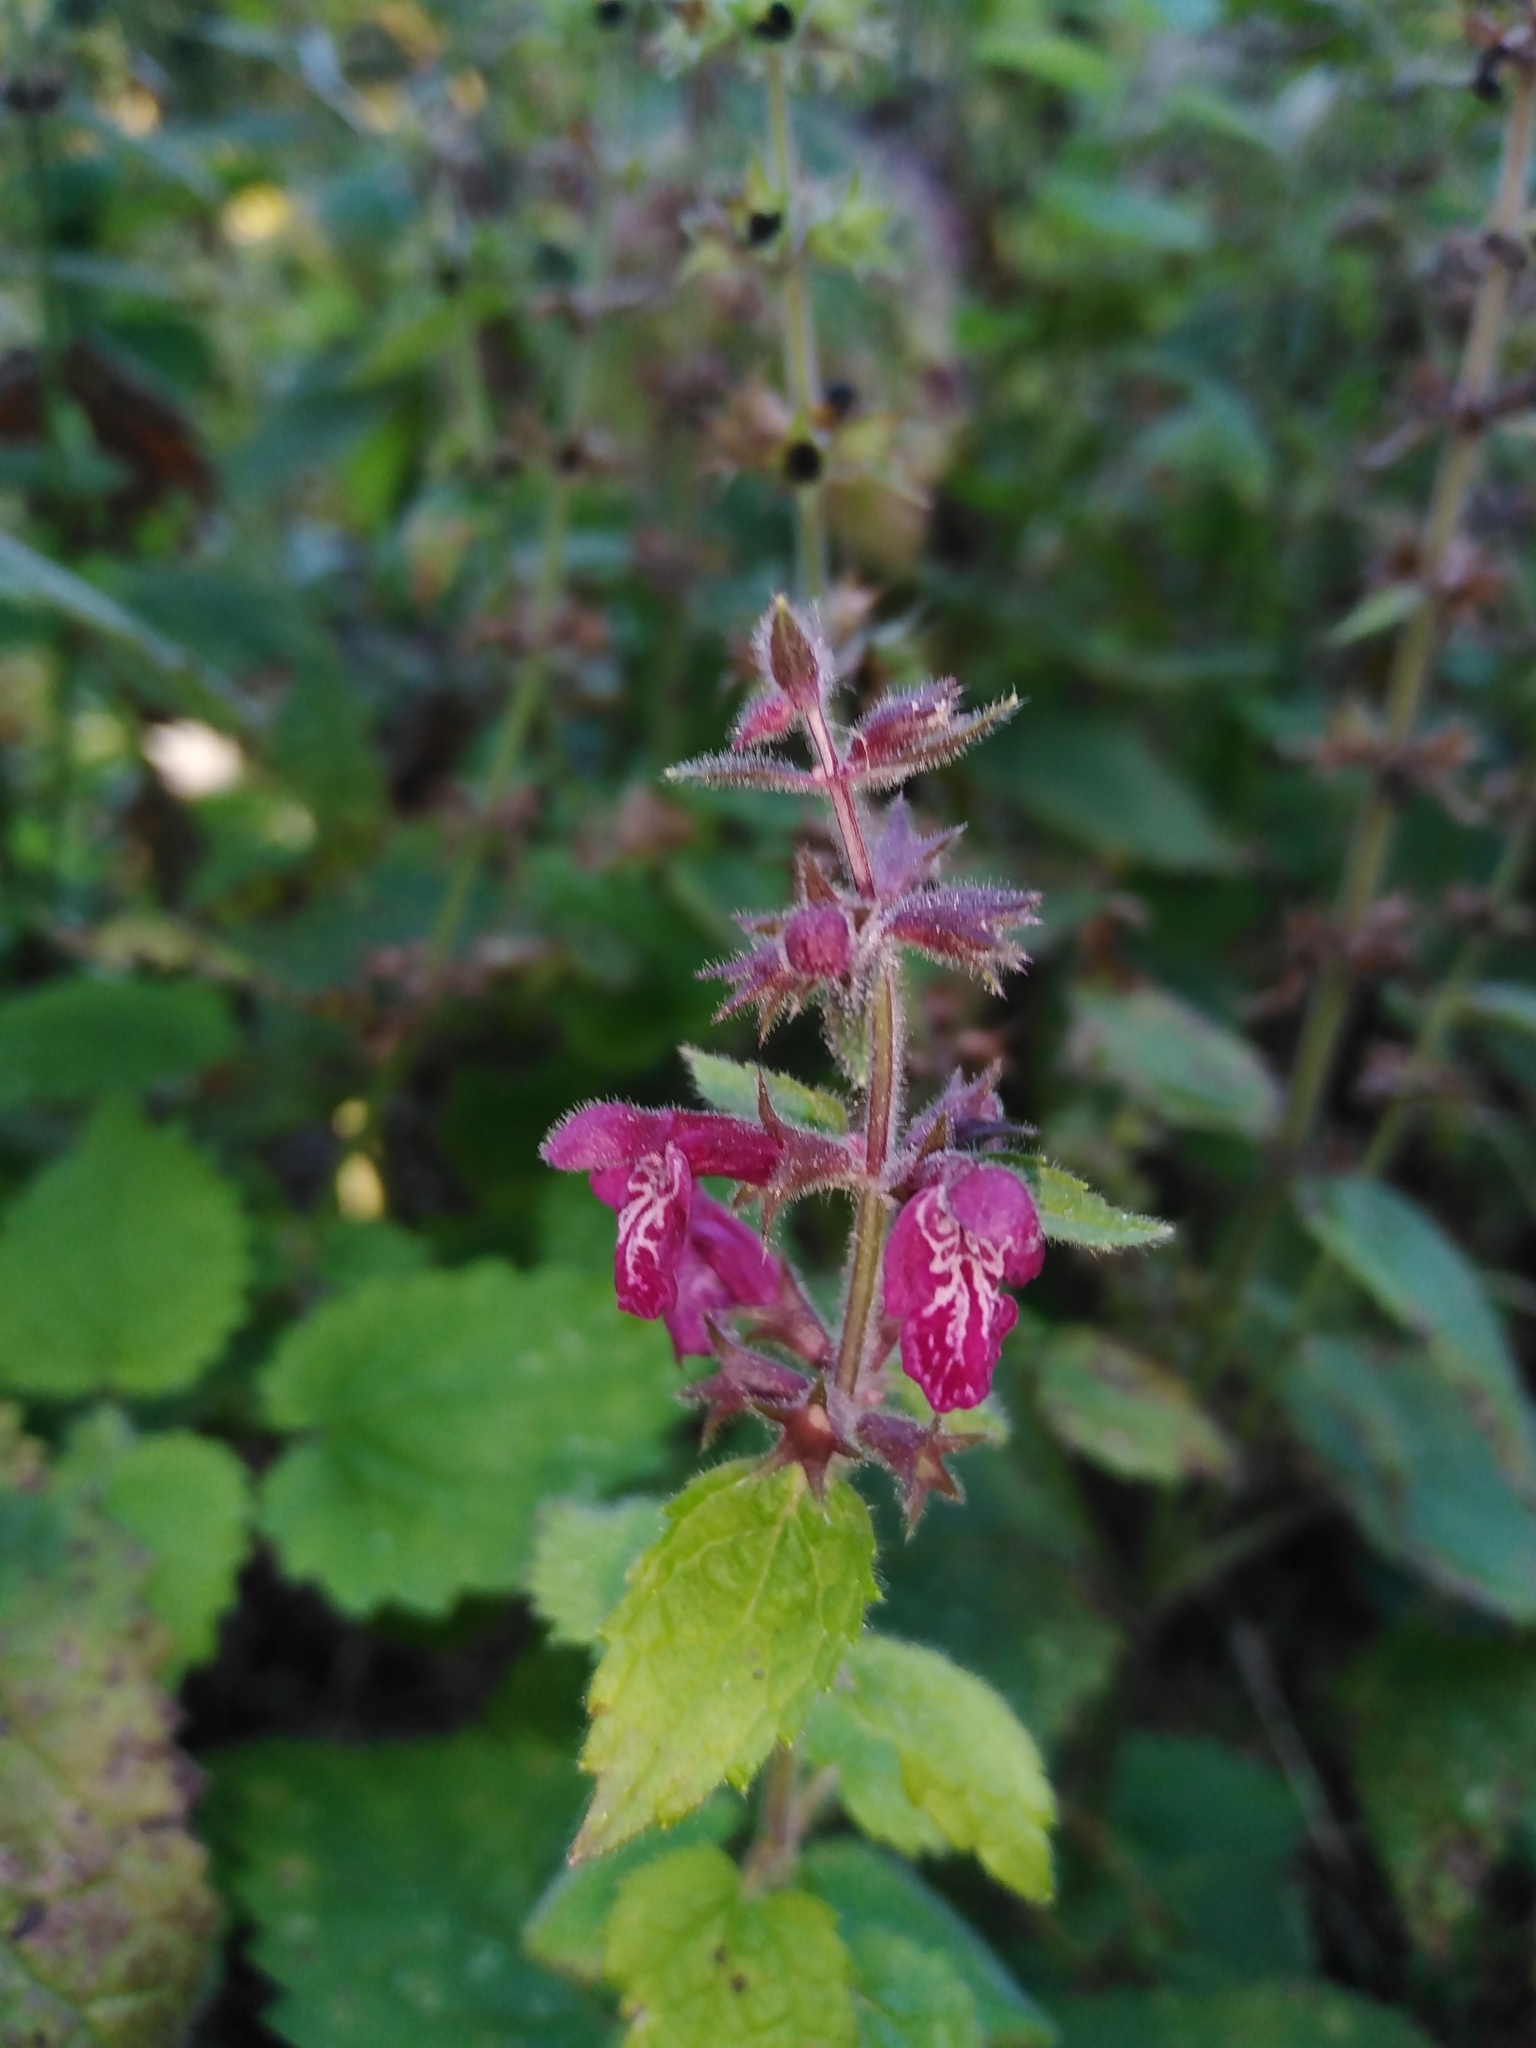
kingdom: Plantae
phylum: Tracheophyta
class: Magnoliopsida
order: Lamiales
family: Lamiaceae
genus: Stachys
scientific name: Stachys sylvatica
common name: Hedge woundwort
